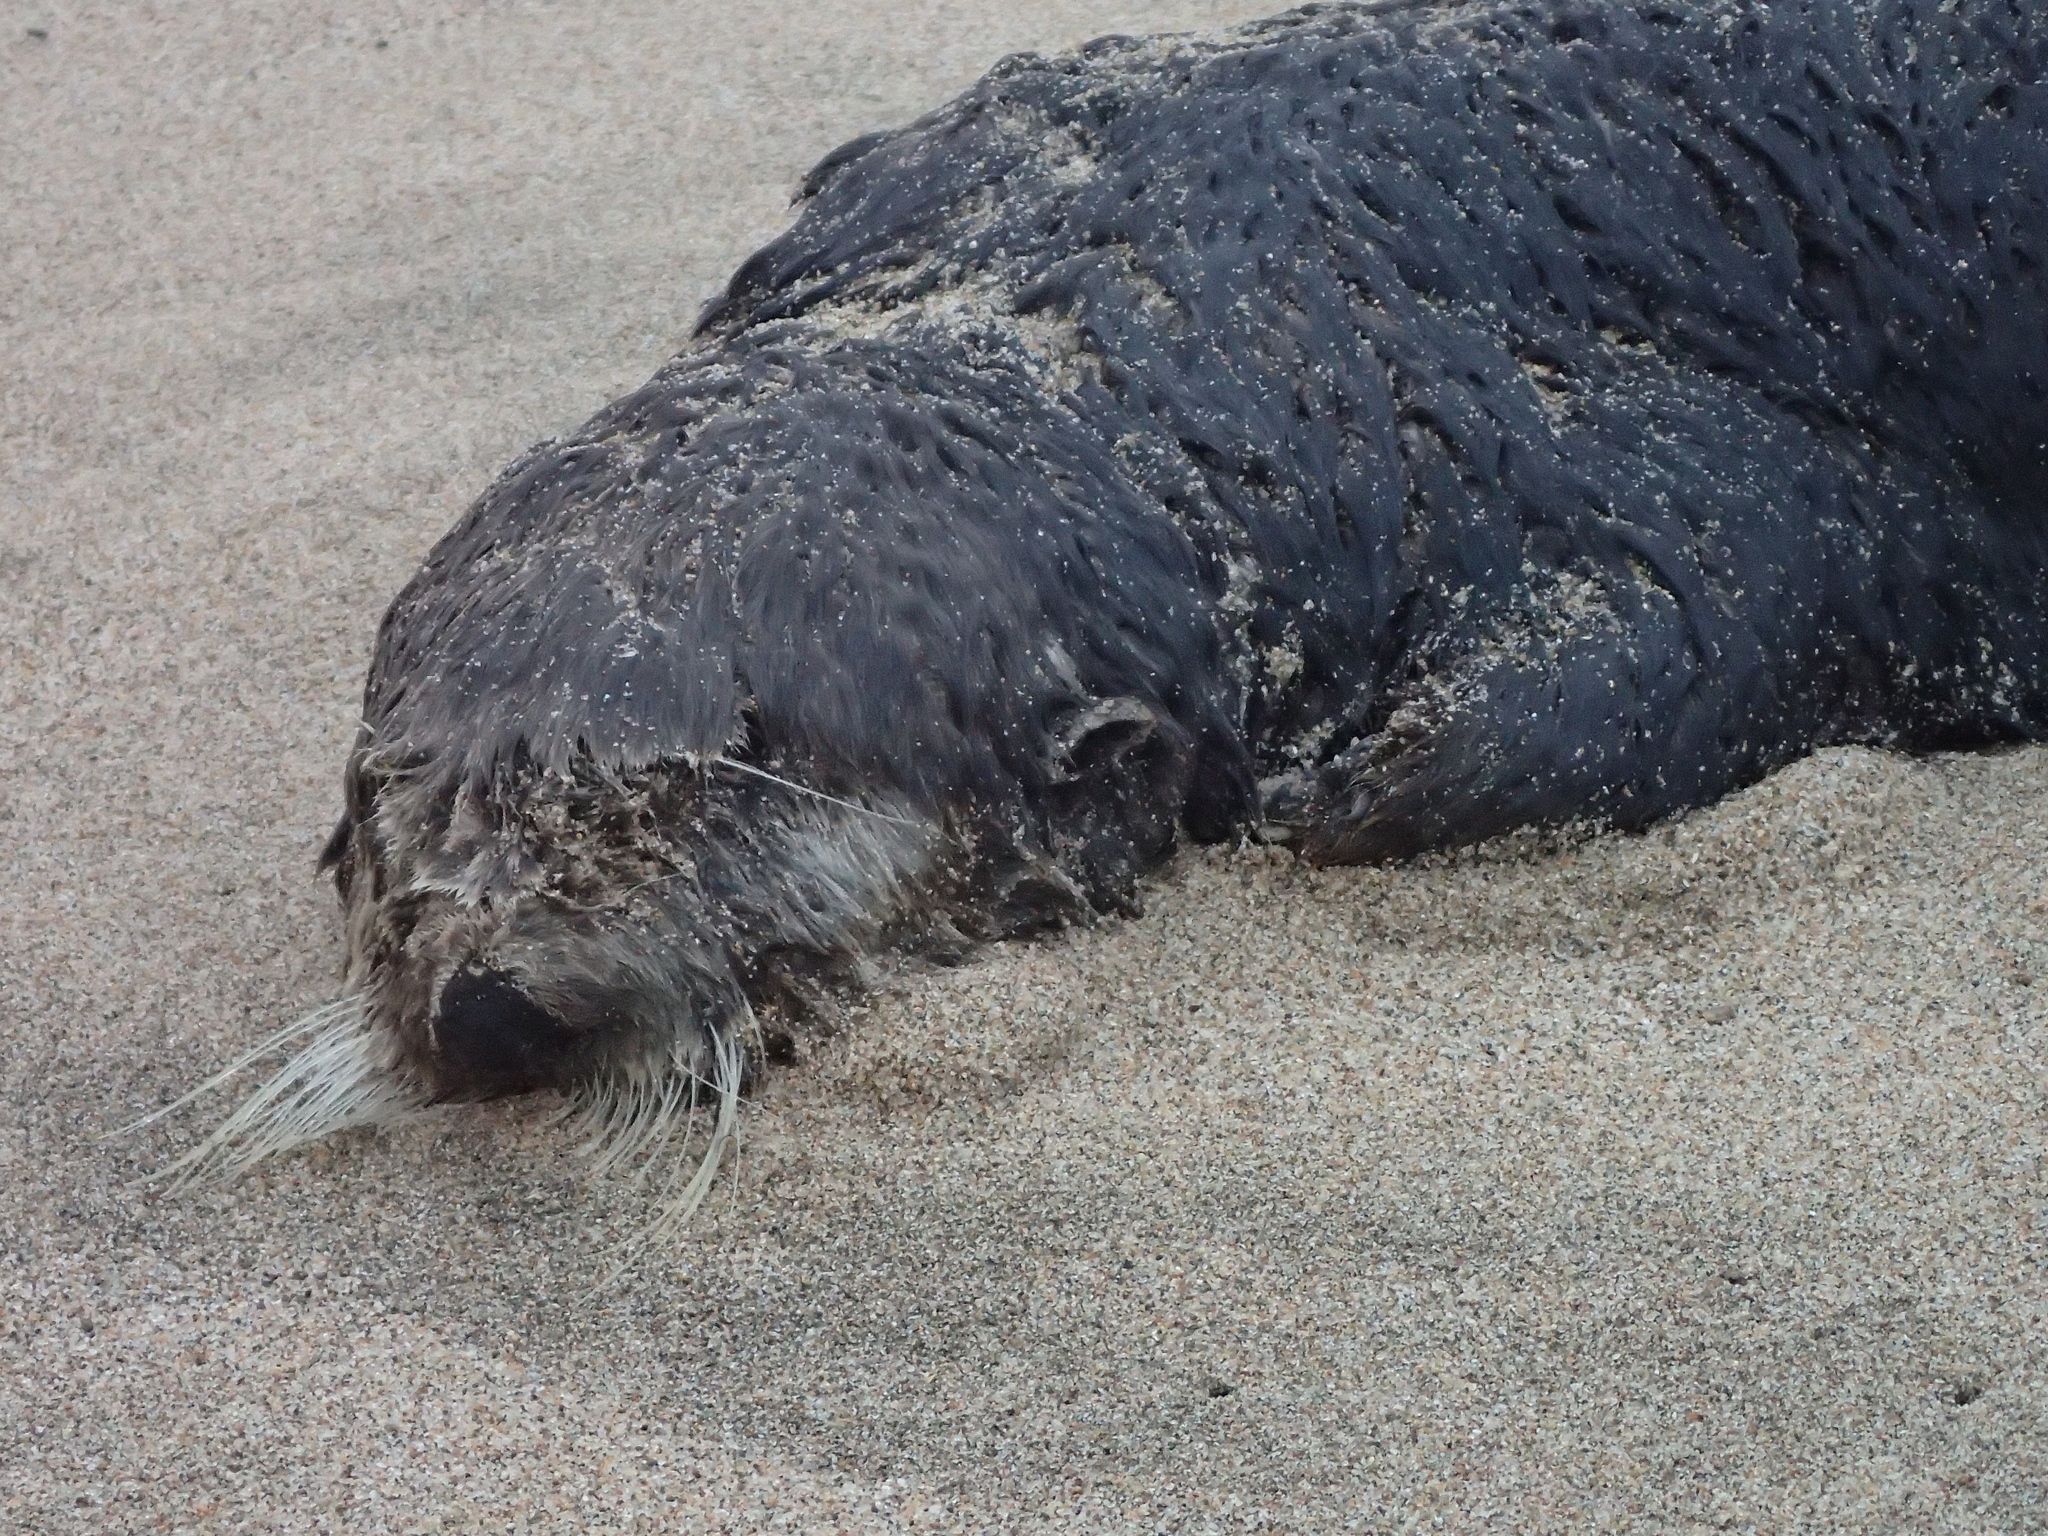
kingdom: Animalia
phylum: Chordata
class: Mammalia
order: Carnivora
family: Mustelidae
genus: Enhydra
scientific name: Enhydra lutris
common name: Sea otter
